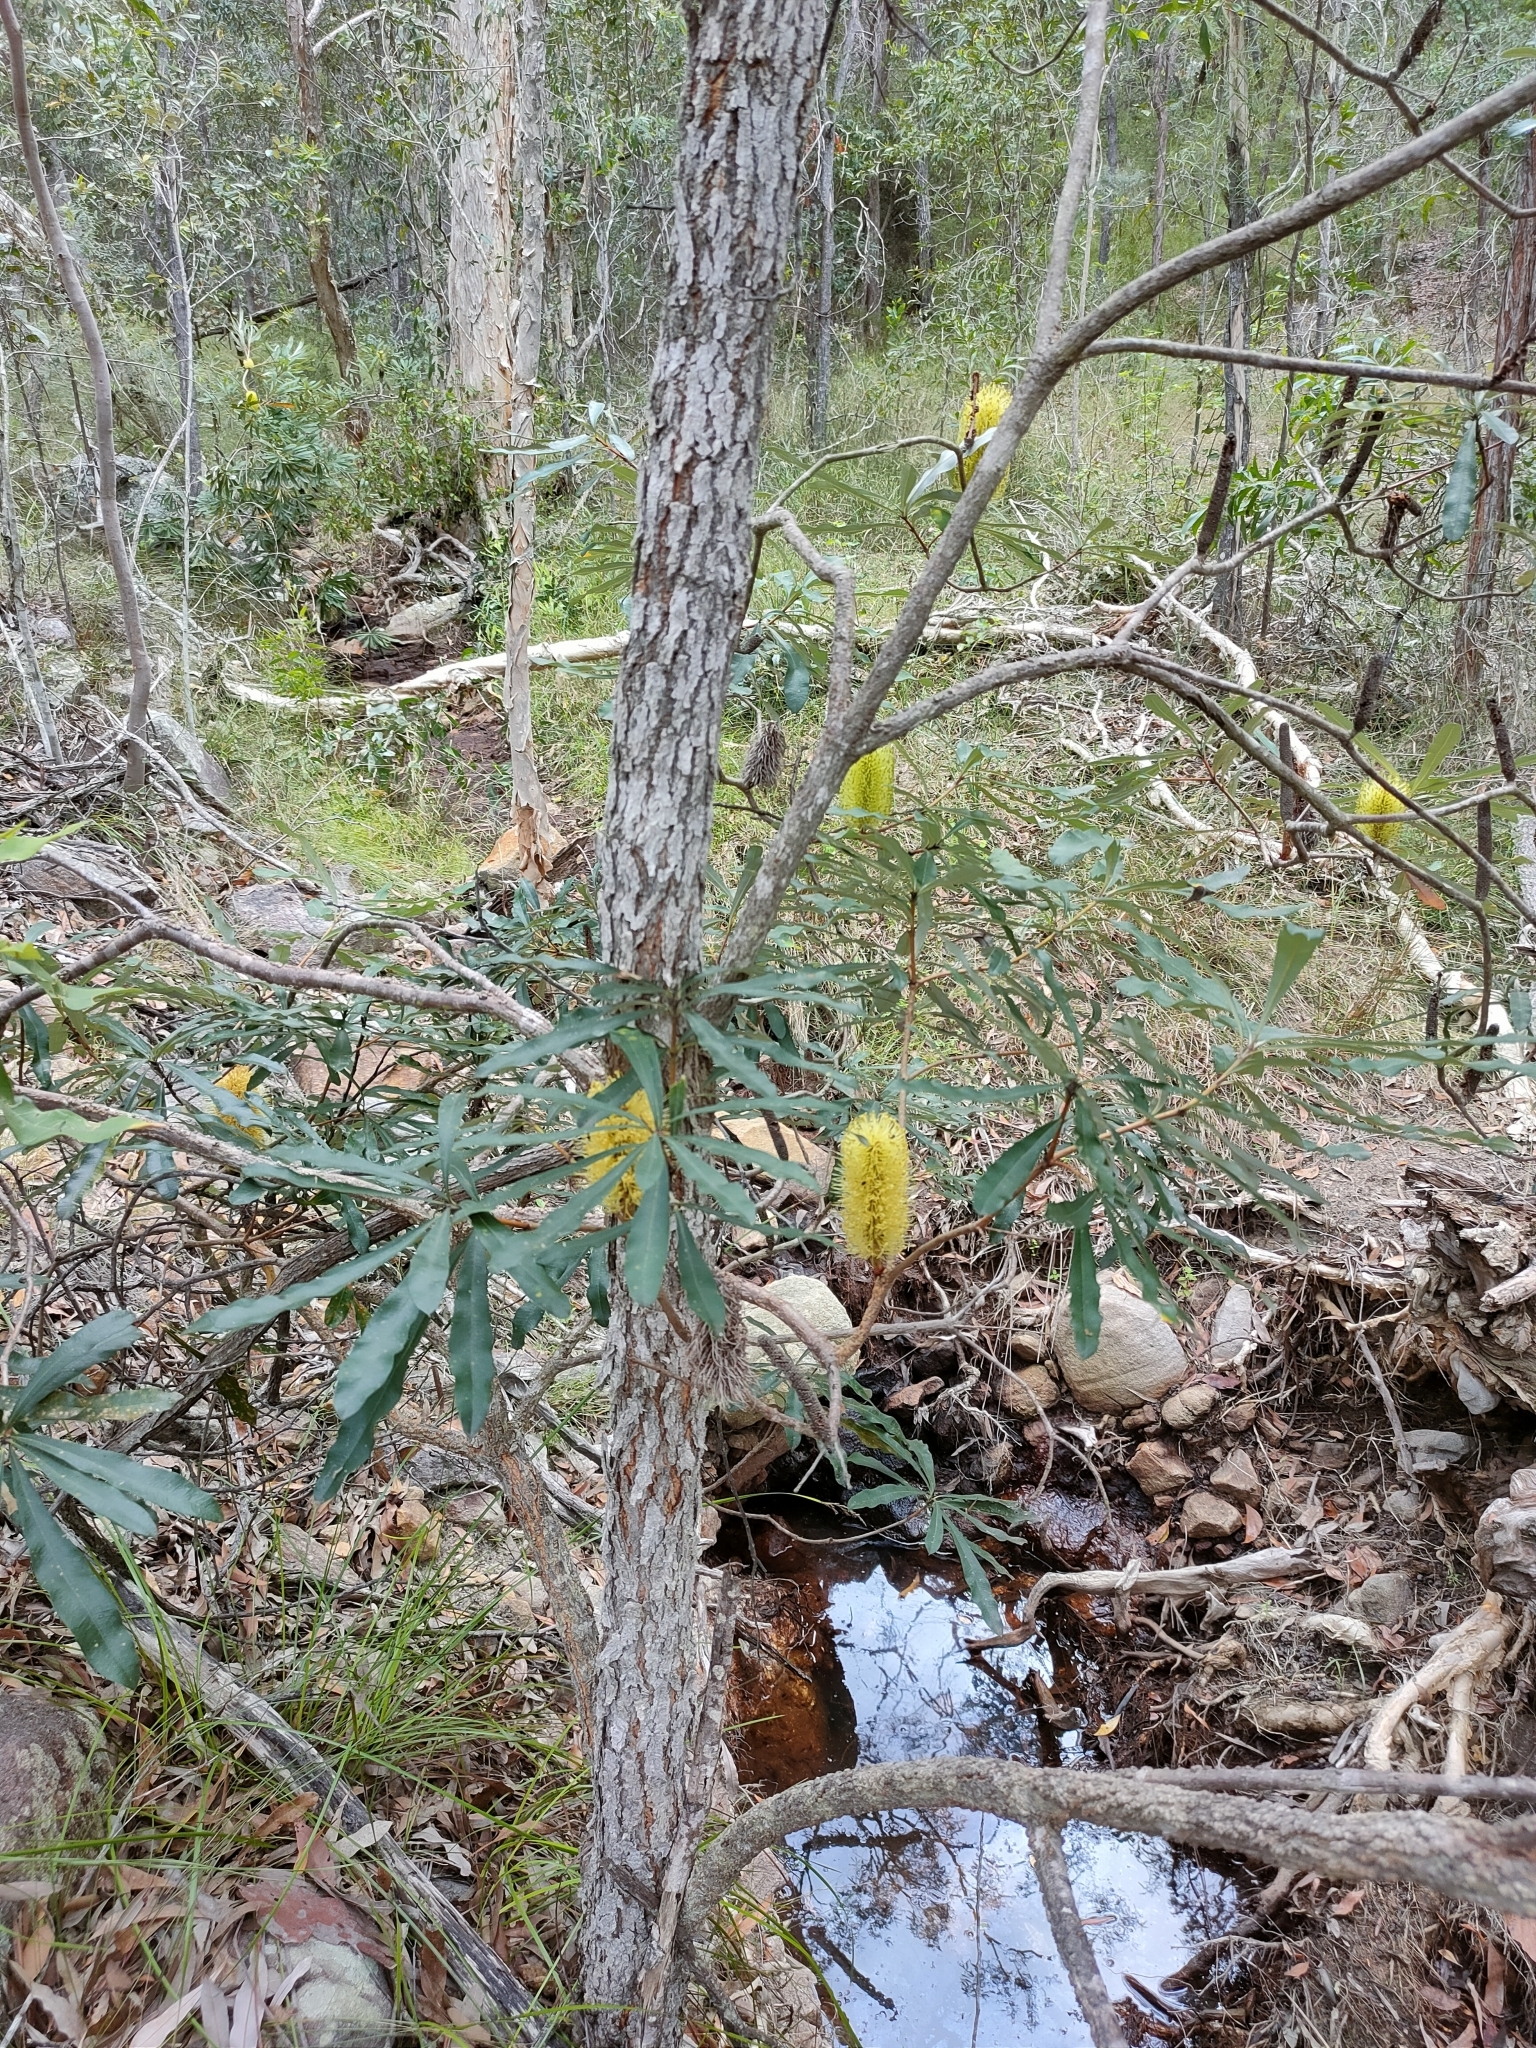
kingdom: Plantae
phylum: Tracheophyta
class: Magnoliopsida
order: Proteales
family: Proteaceae
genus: Banksia
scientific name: Banksia integrifolia
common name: White-honeysuckle
